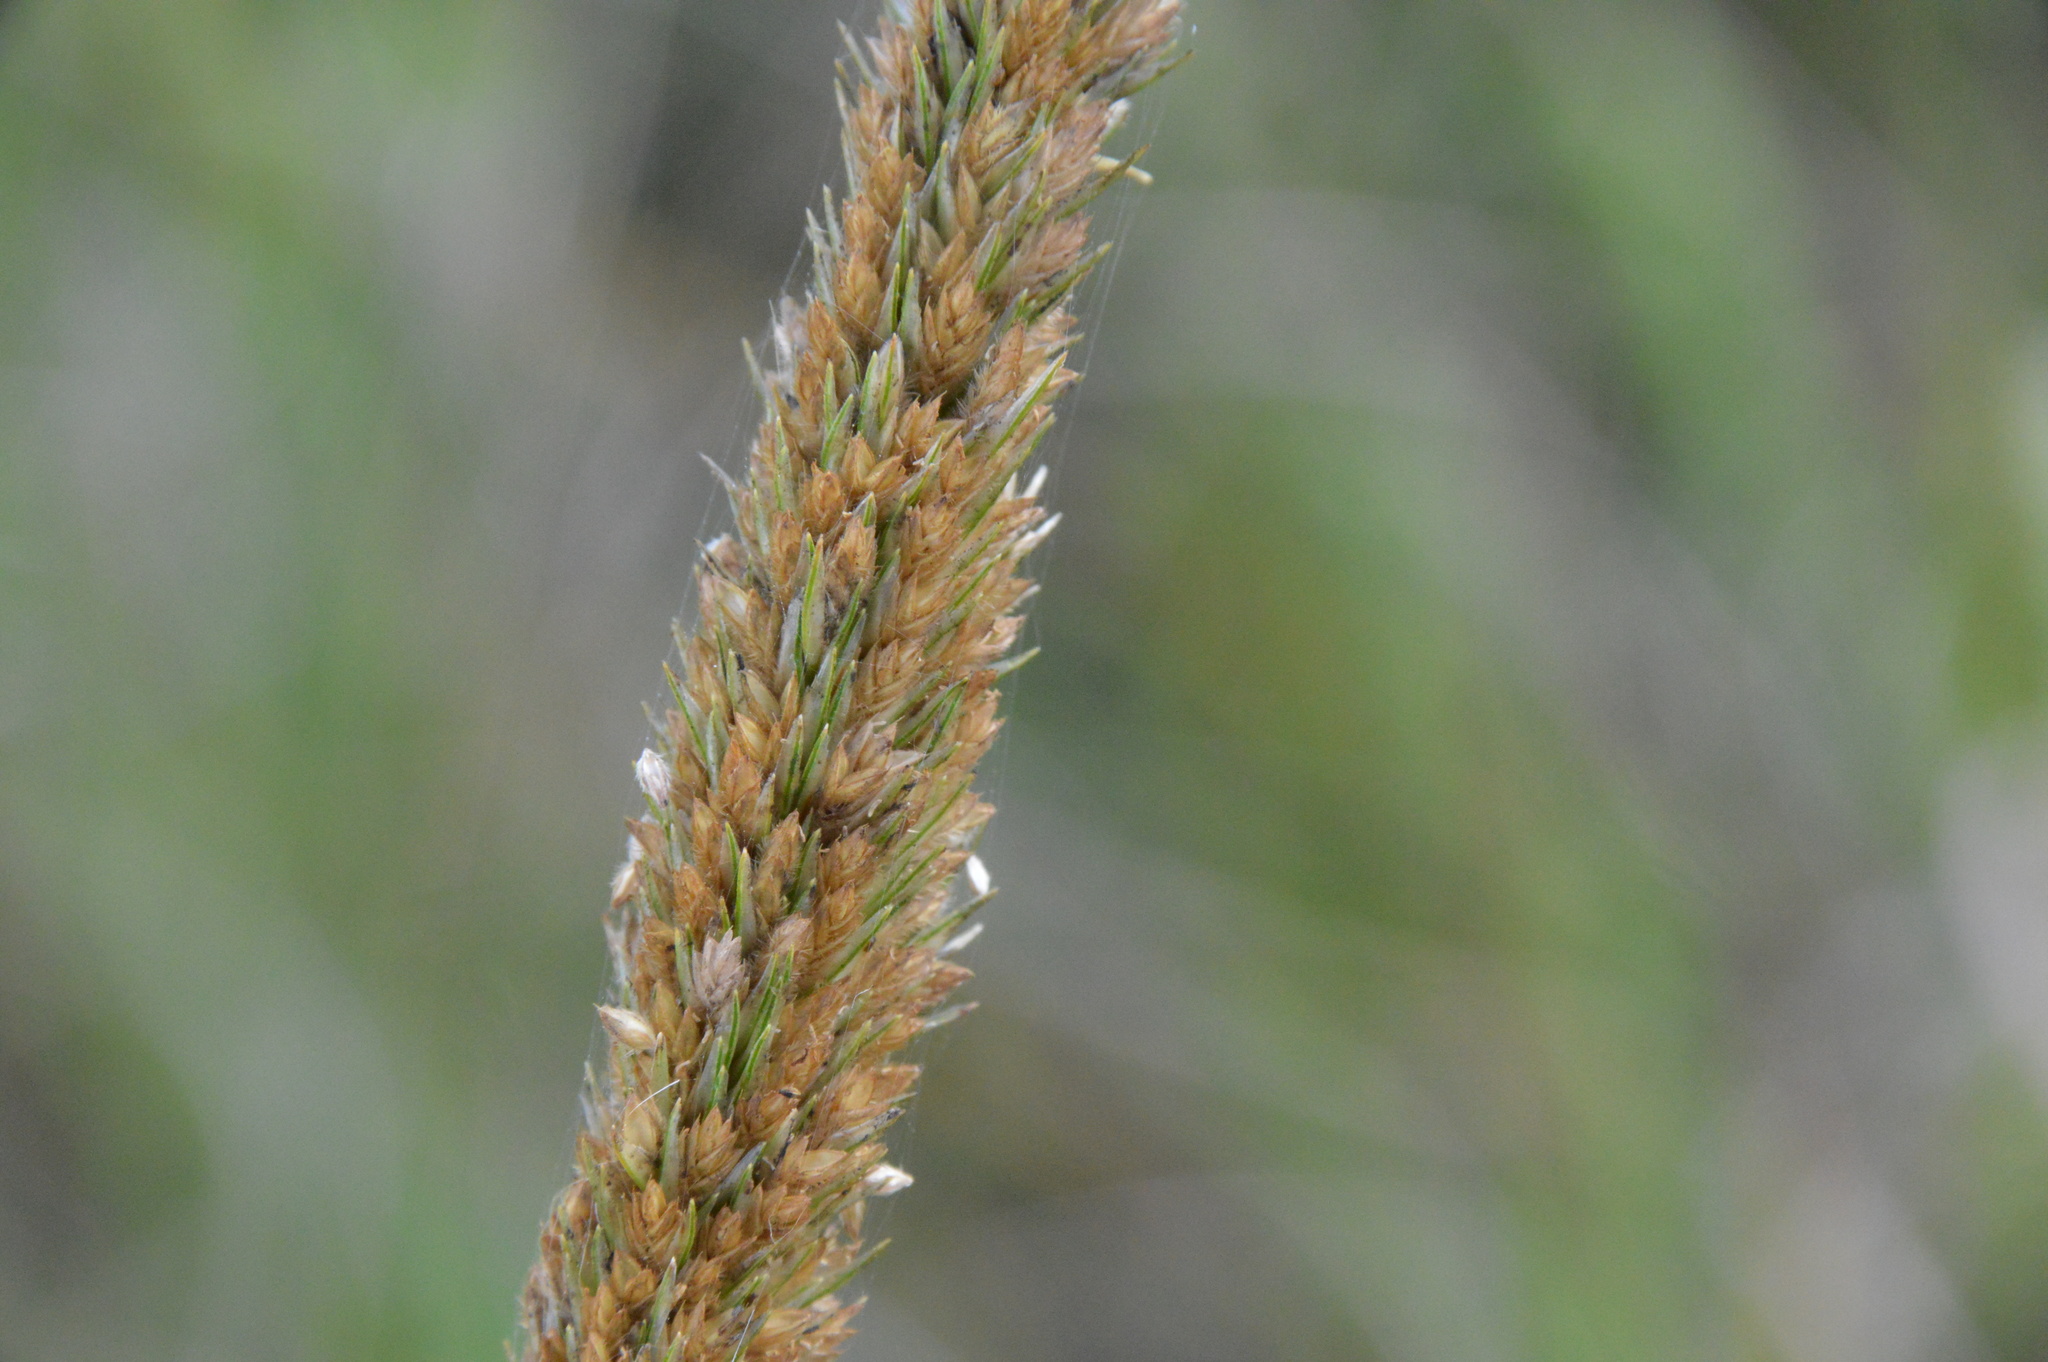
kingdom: Plantae
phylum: Tracheophyta
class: Liliopsida
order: Poales
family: Poaceae
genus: Tridens
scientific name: Tridens strictus
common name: Long-spike tridens
